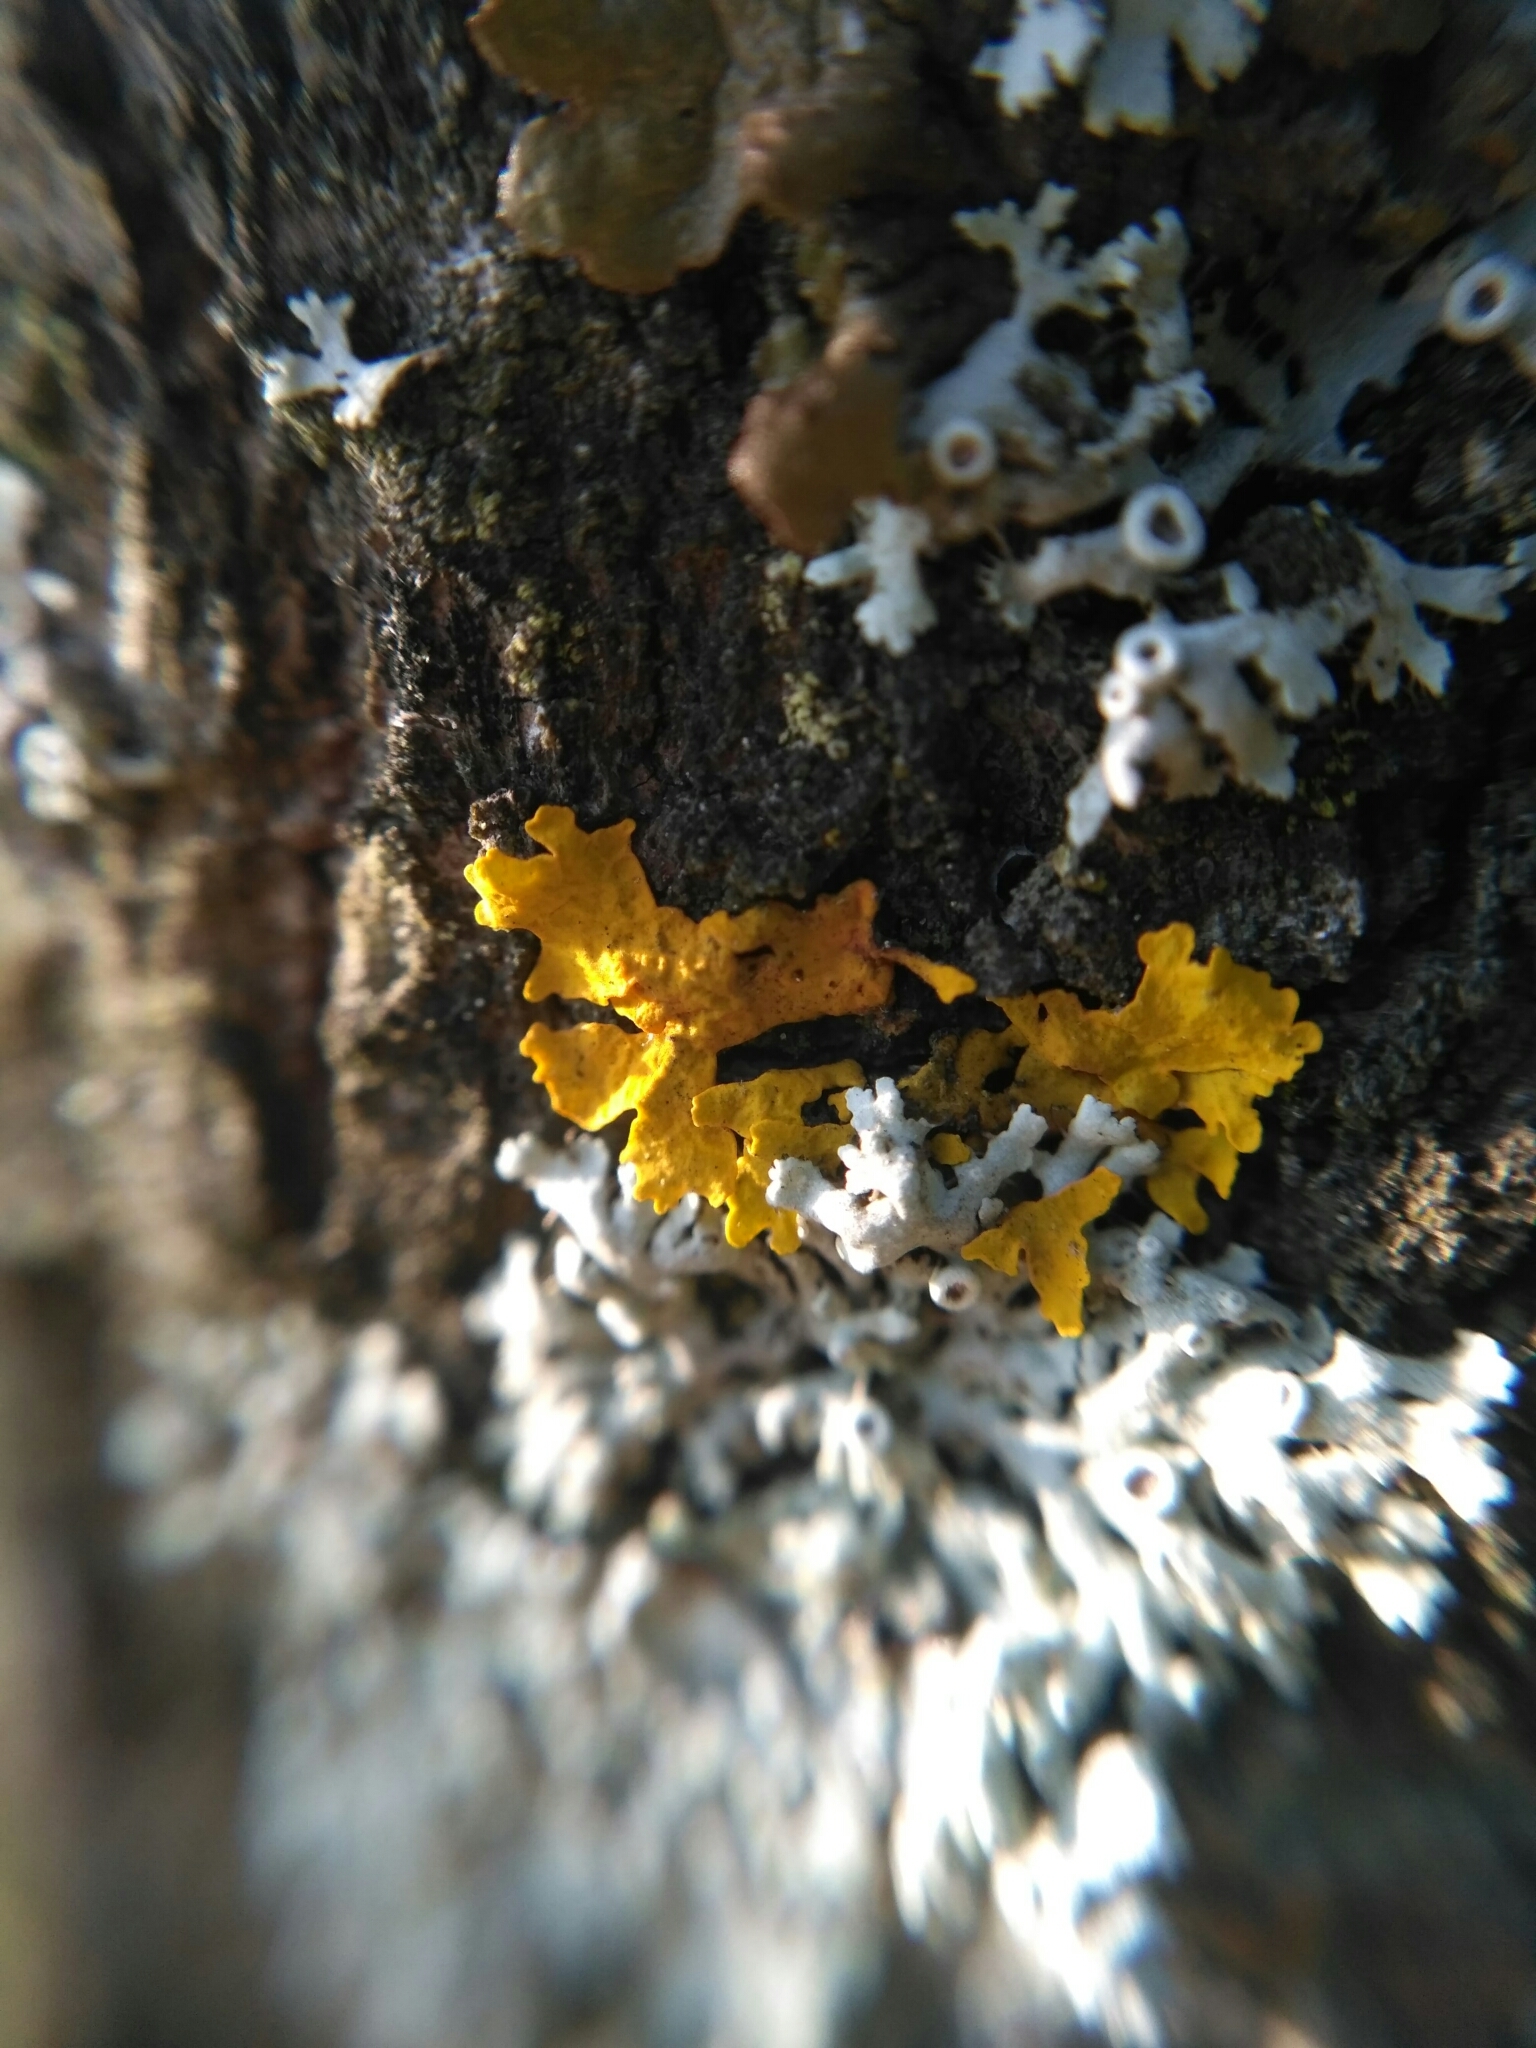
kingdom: Fungi
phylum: Ascomycota
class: Lecanoromycetes
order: Teloschistales
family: Teloschistaceae
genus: Xanthoria
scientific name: Xanthoria parietina
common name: Common orange lichen
